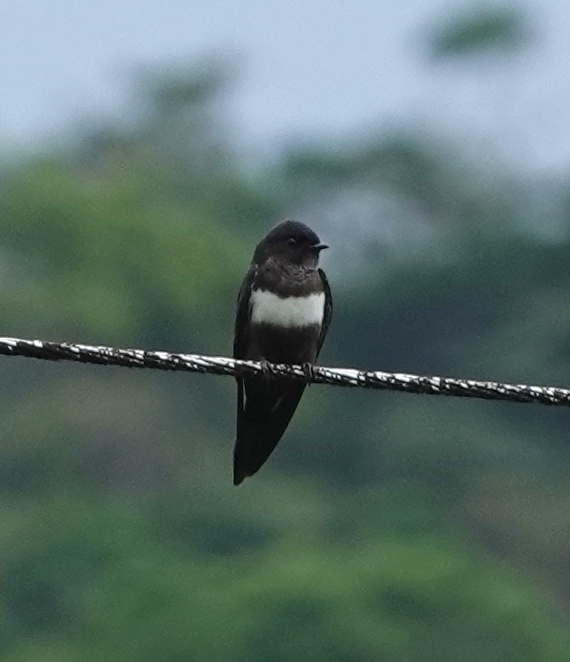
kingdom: Animalia
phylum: Chordata
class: Aves
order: Passeriformes
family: Hirundinidae
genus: Atticora
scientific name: Atticora fasciata
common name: White-banded swallow
